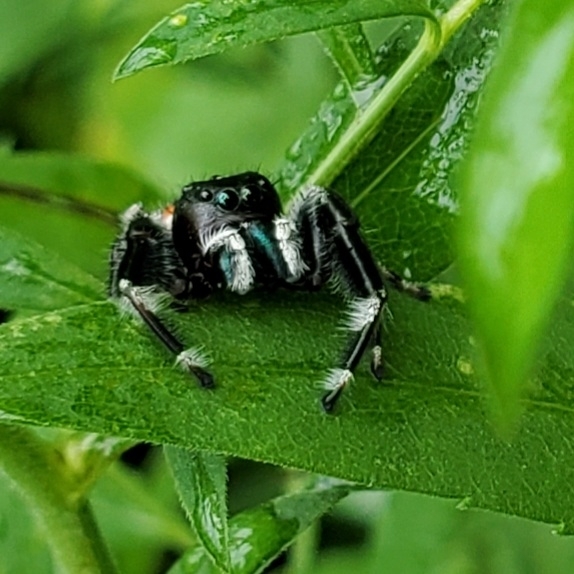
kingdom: Animalia
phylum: Arthropoda
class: Arachnida
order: Araneae
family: Salticidae
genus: Phidippus
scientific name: Phidippus clarus
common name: Brilliant jumping spider
